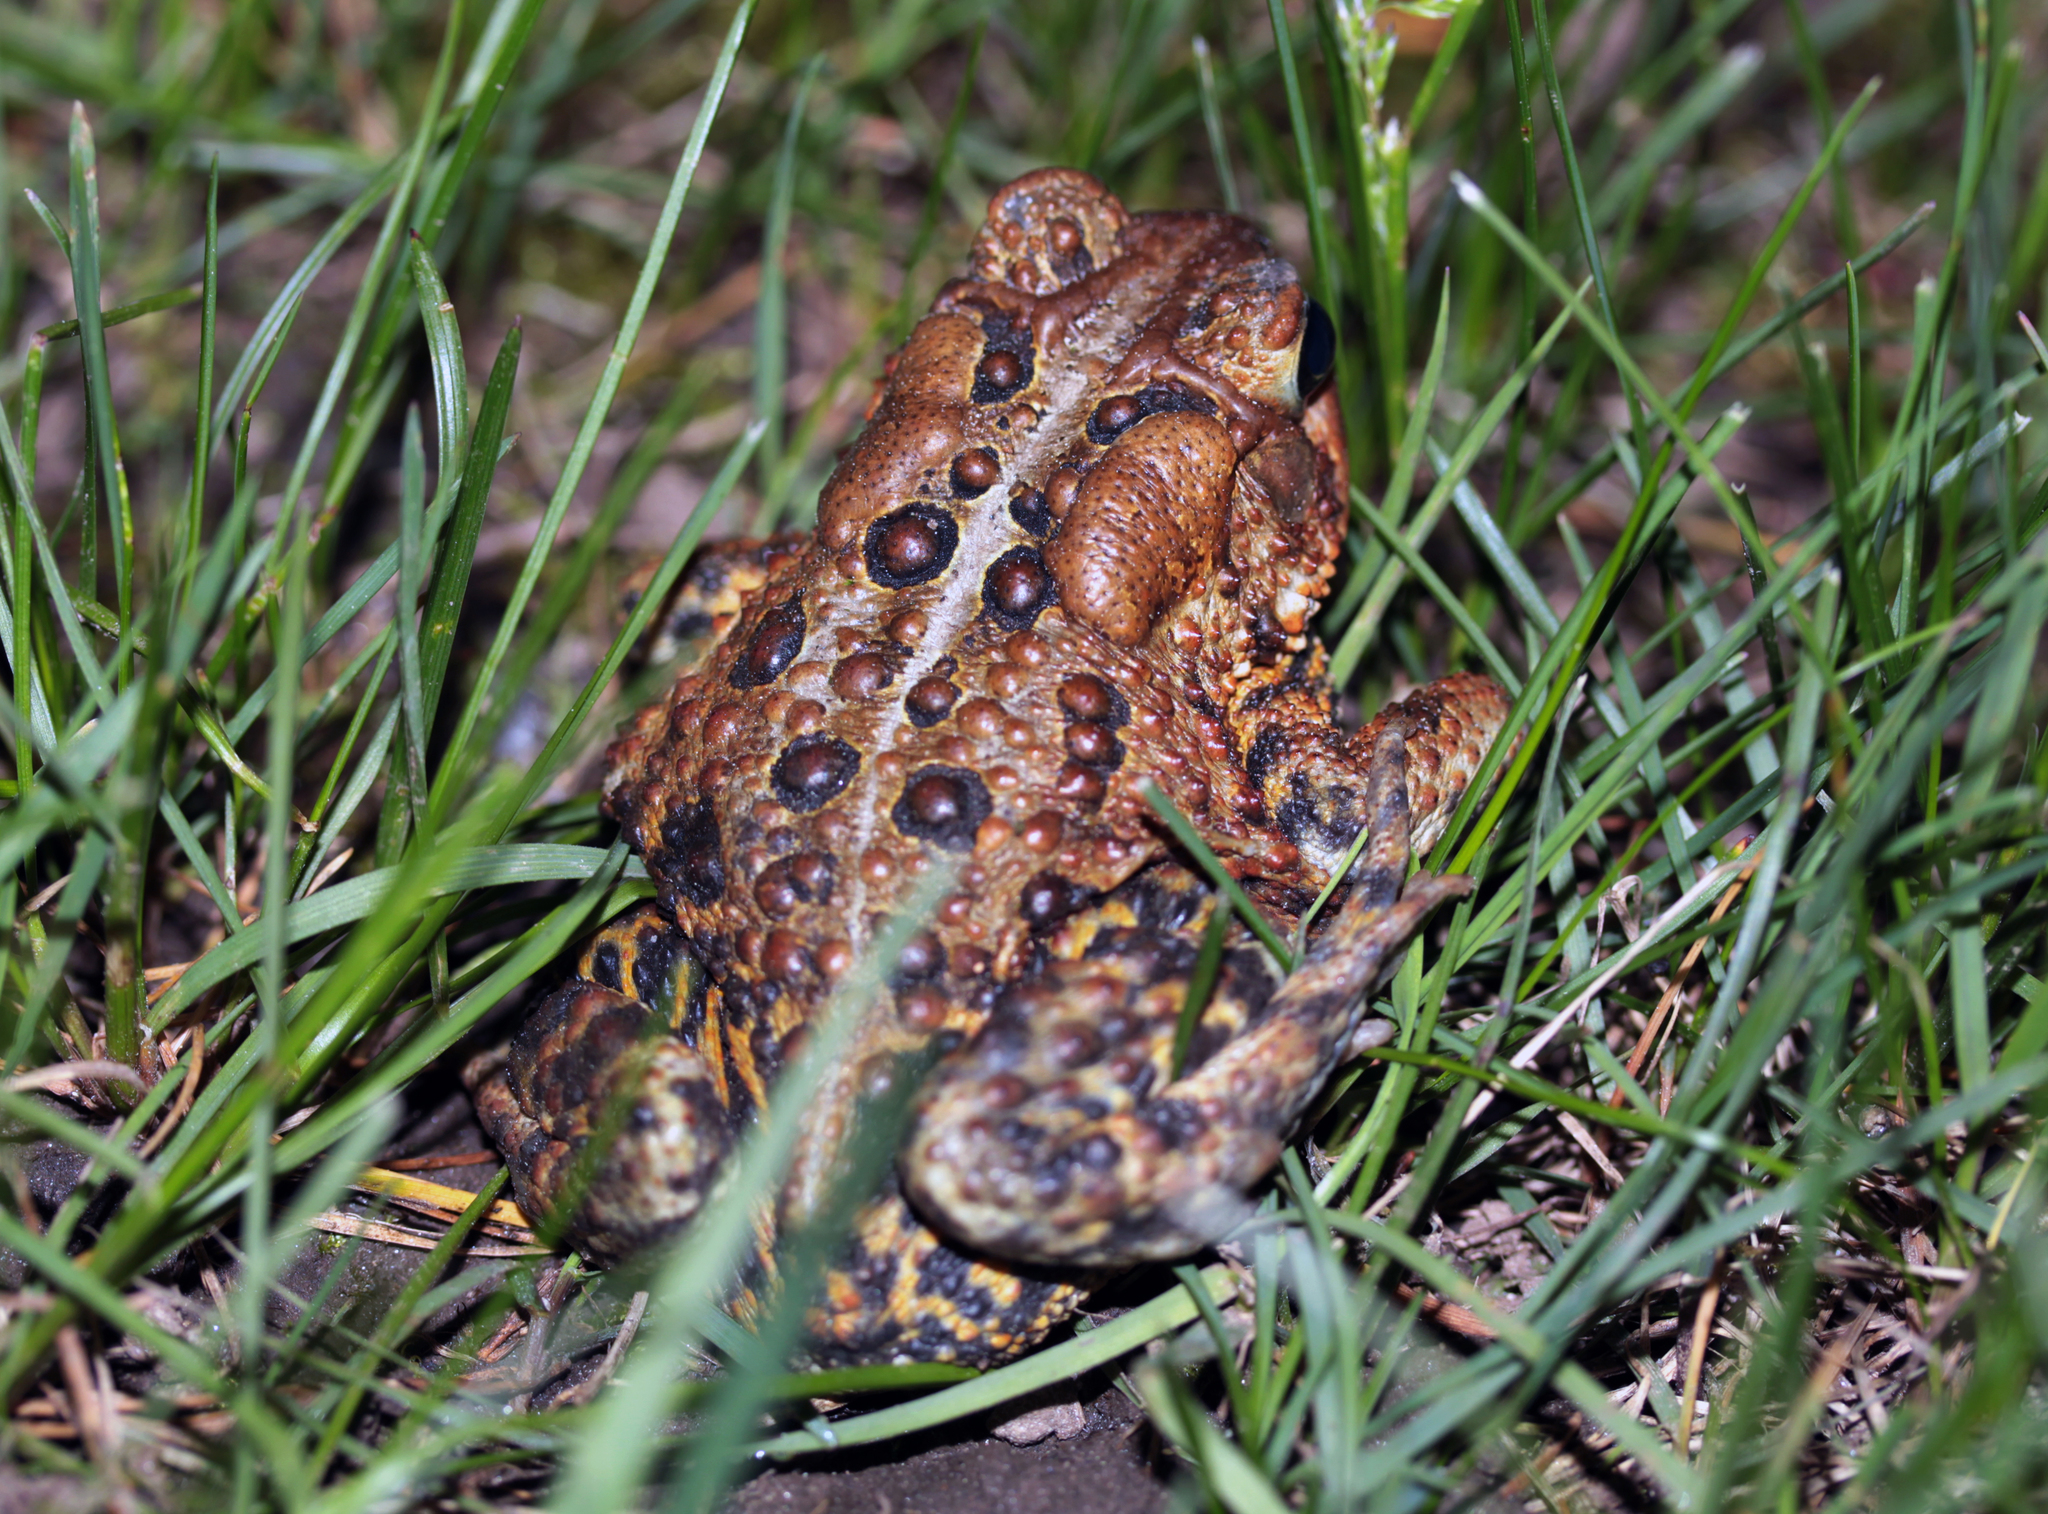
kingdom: Animalia
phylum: Chordata
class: Amphibia
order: Anura
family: Bufonidae
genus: Anaxyrus
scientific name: Anaxyrus americanus
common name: American toad
